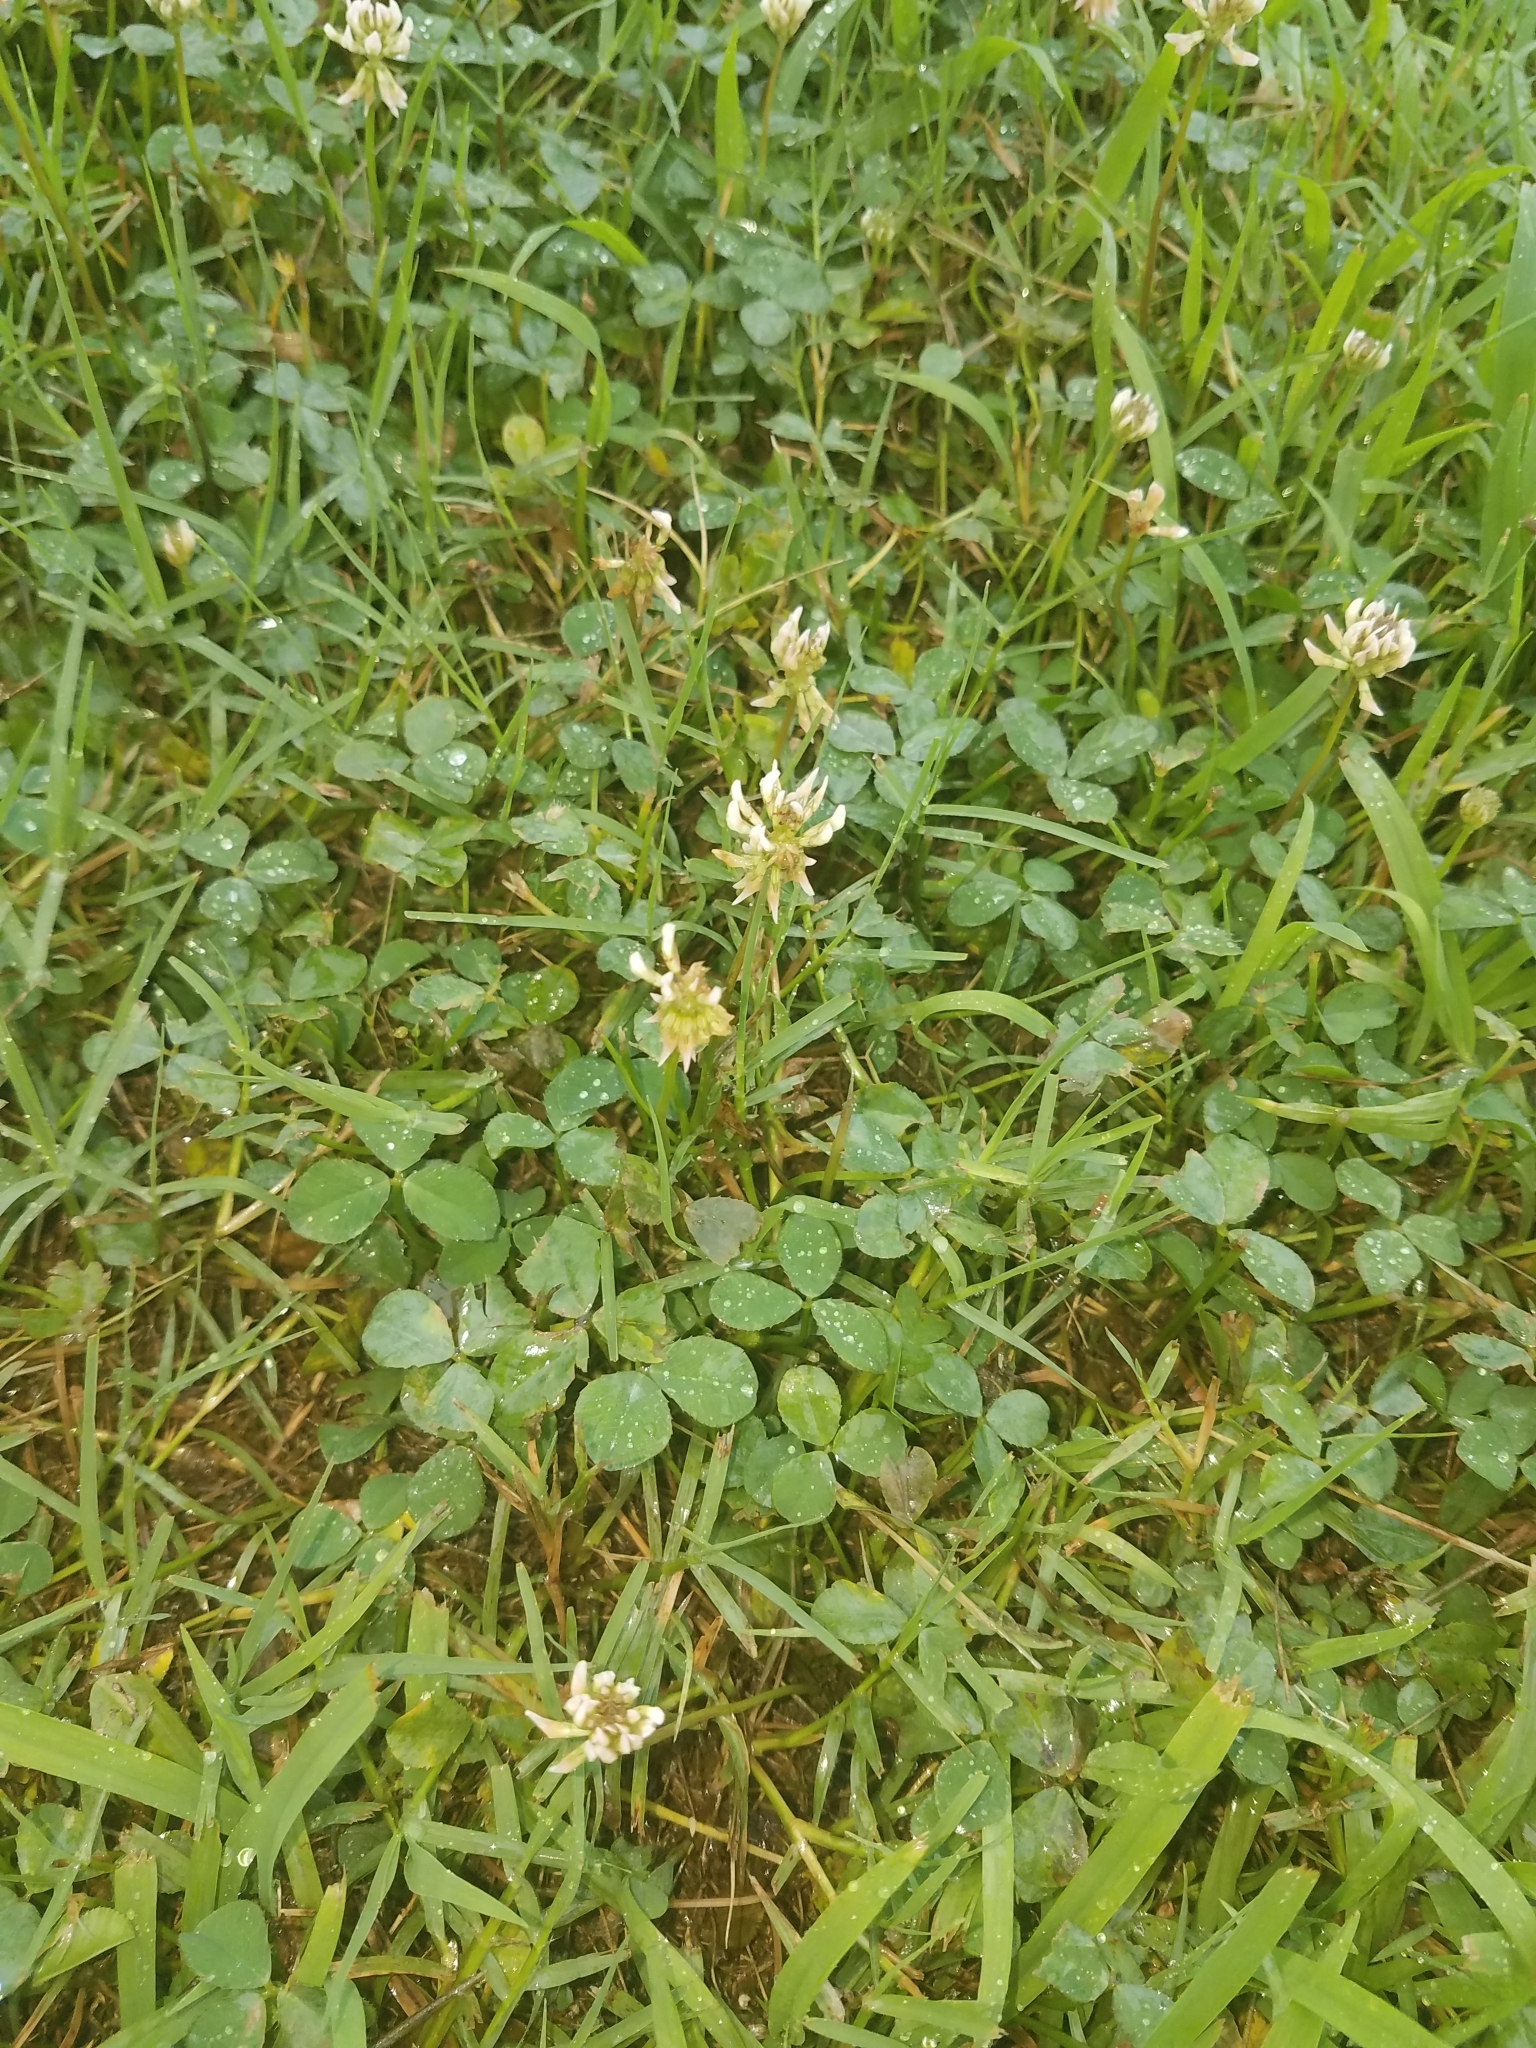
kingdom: Plantae
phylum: Tracheophyta
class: Magnoliopsida
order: Fabales
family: Fabaceae
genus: Trifolium
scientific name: Trifolium repens
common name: White clover
